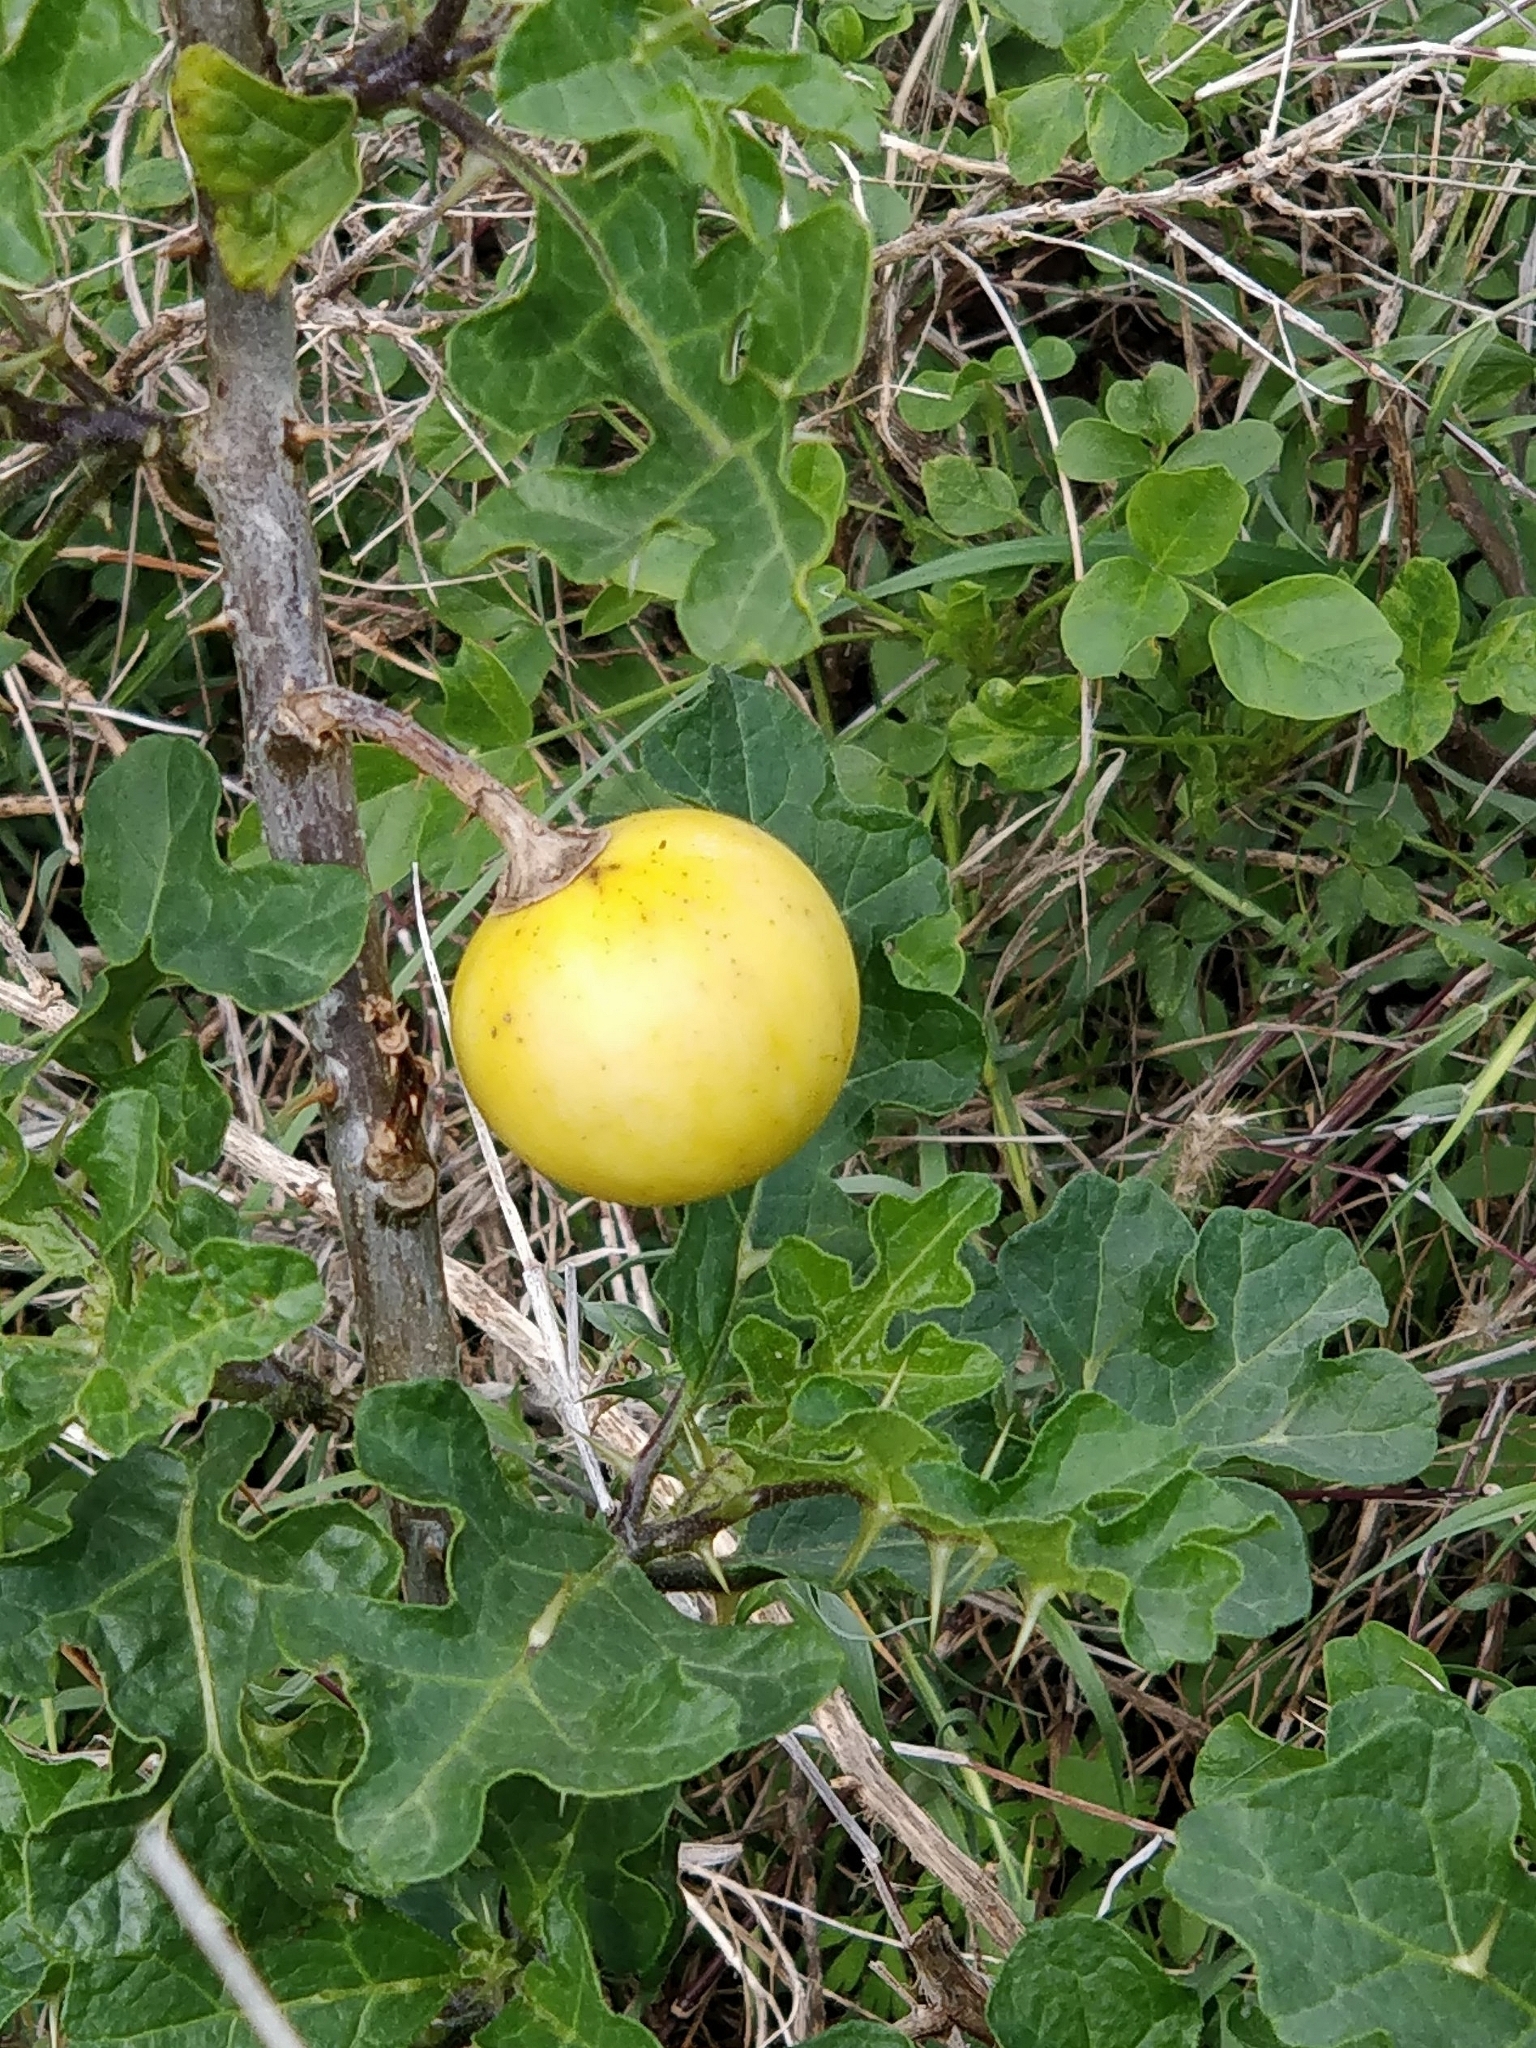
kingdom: Plantae
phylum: Tracheophyta
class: Magnoliopsida
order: Solanales
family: Solanaceae
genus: Solanum
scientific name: Solanum linnaeanum
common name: Nightshade
